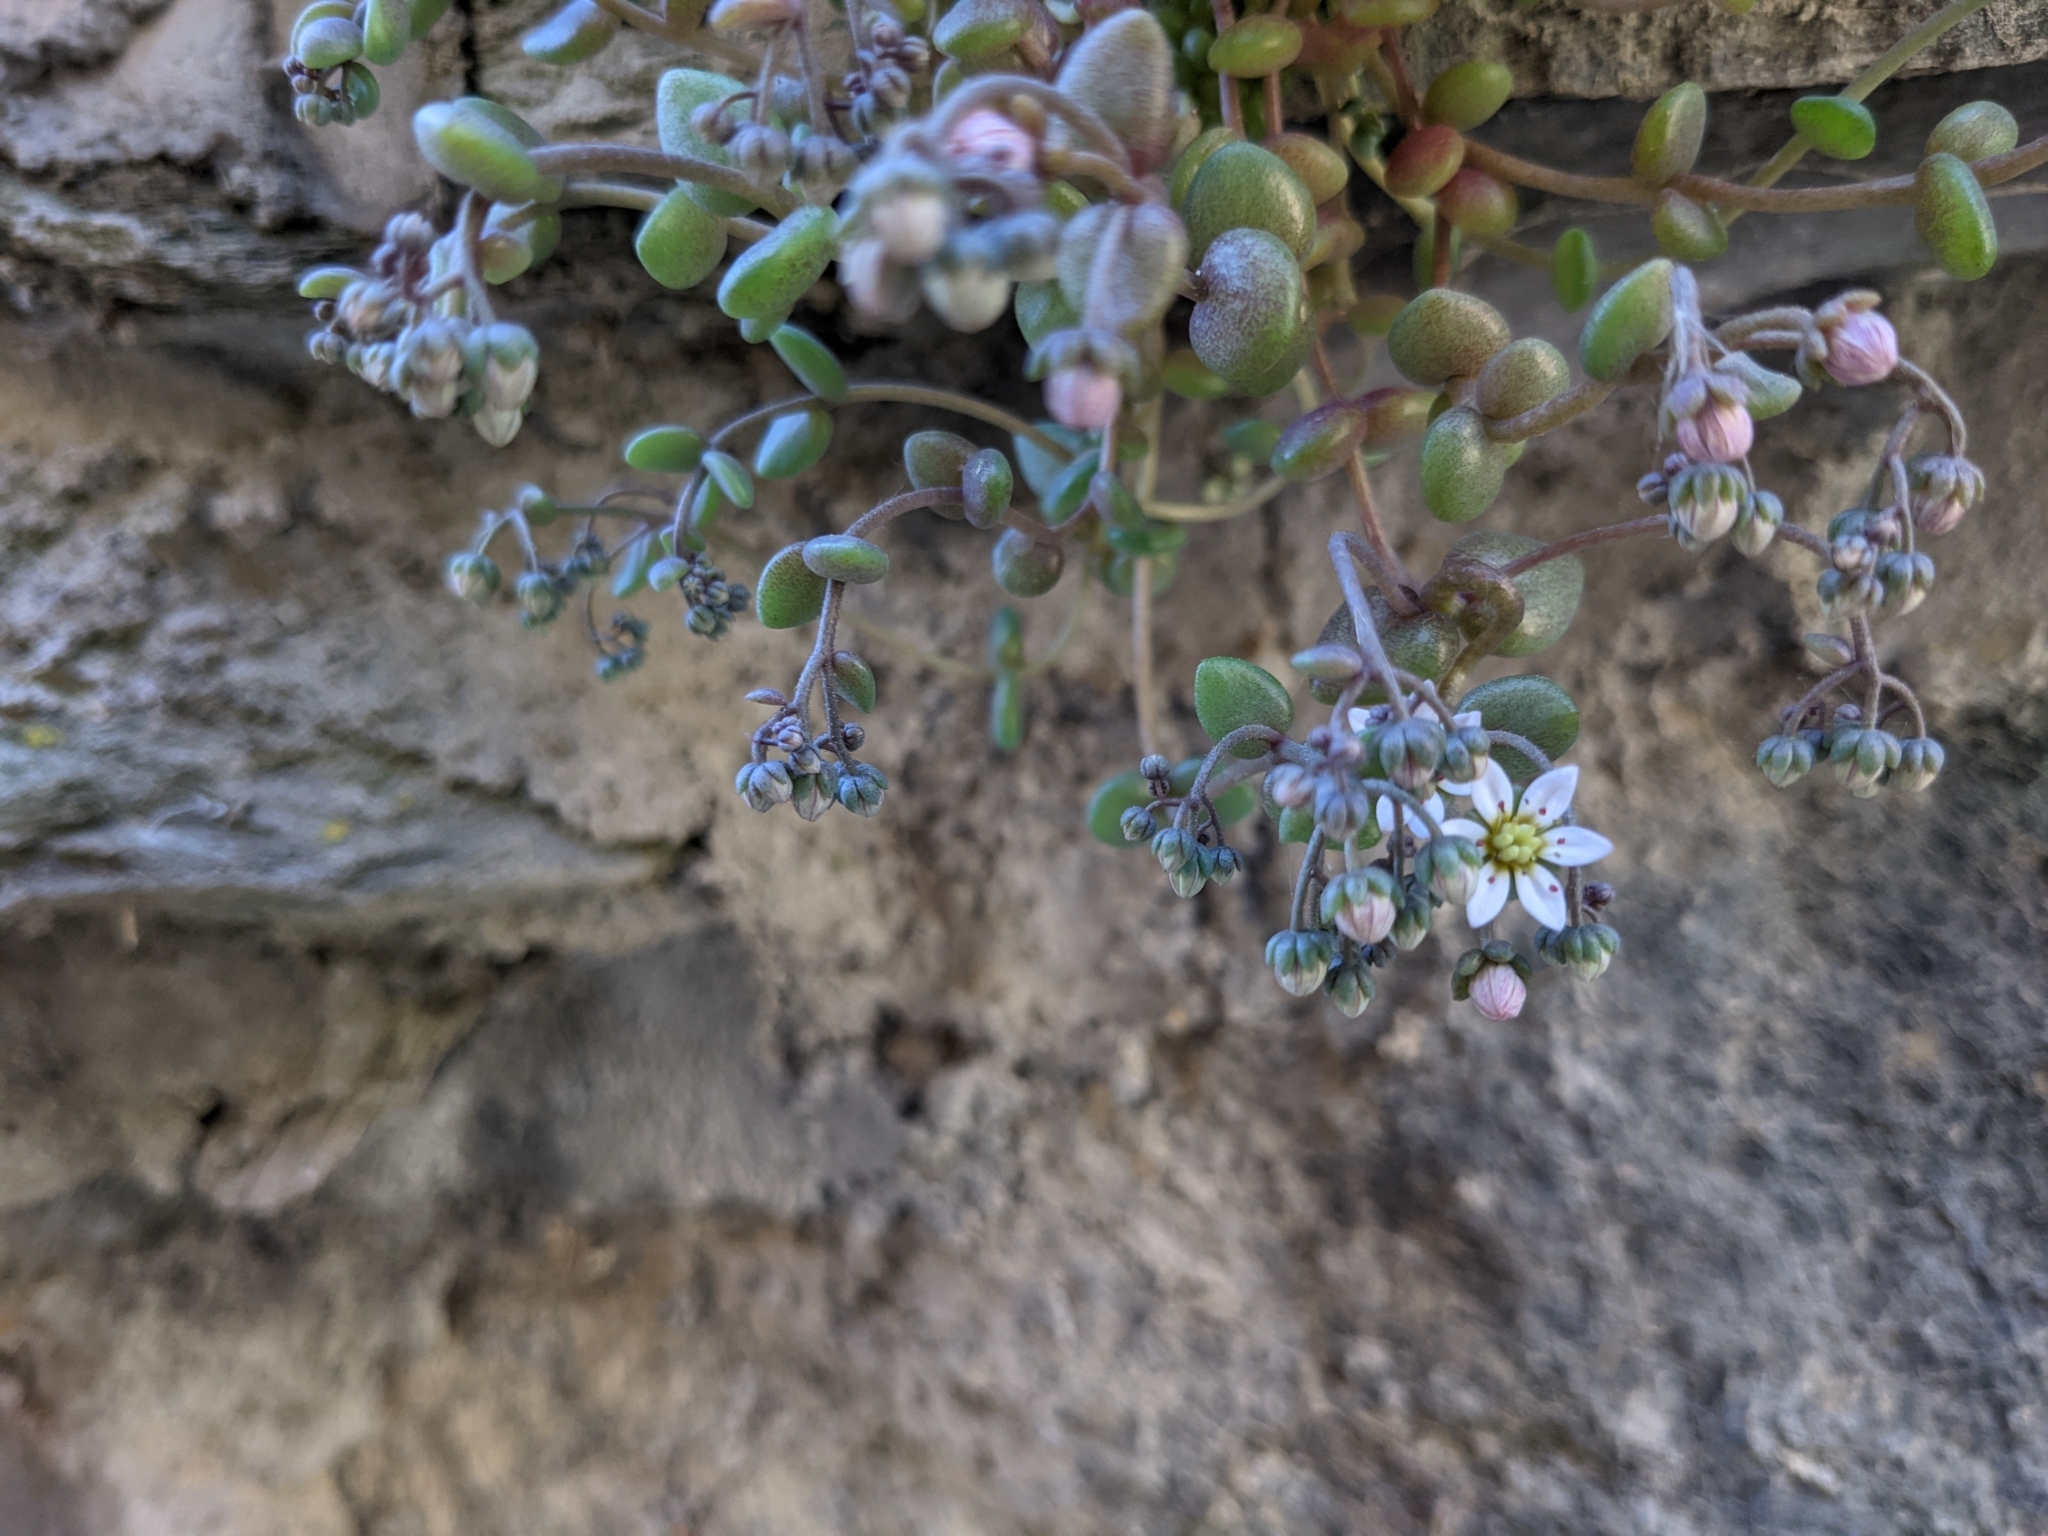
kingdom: Plantae
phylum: Tracheophyta
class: Magnoliopsida
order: Saxifragales
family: Crassulaceae
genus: Sedum
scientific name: Sedum dasyphyllum
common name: Thick-leaf stonecrop
